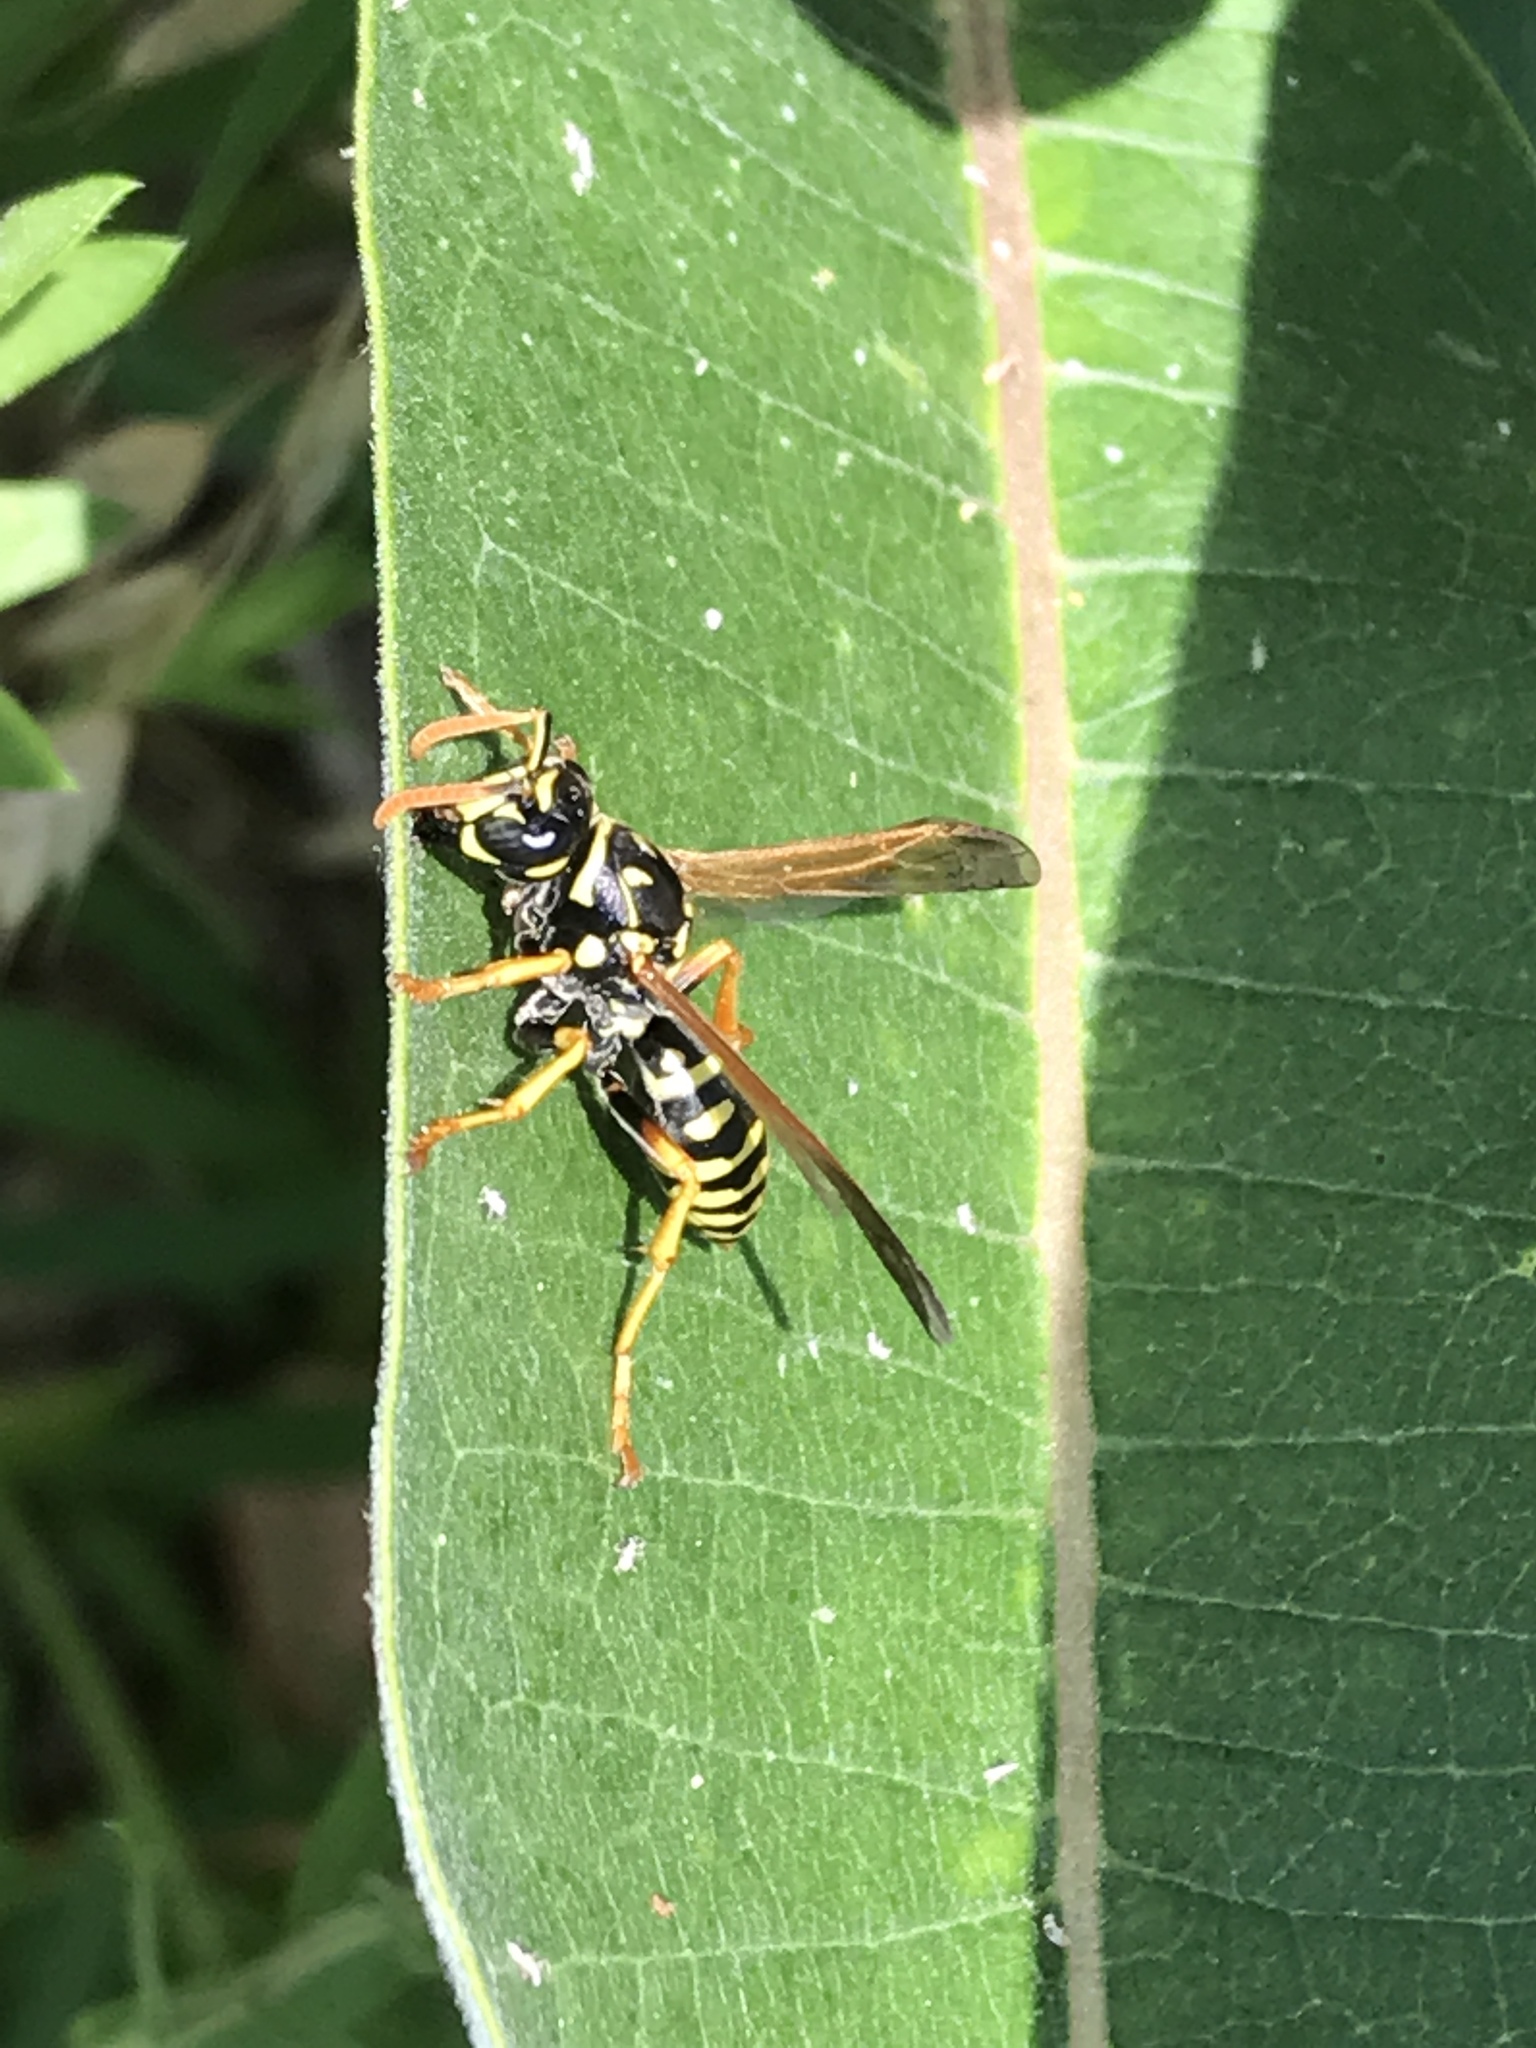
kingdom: Animalia
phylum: Arthropoda
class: Insecta
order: Hymenoptera
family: Eumenidae
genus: Polistes
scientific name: Polistes dominula
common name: Paper wasp
